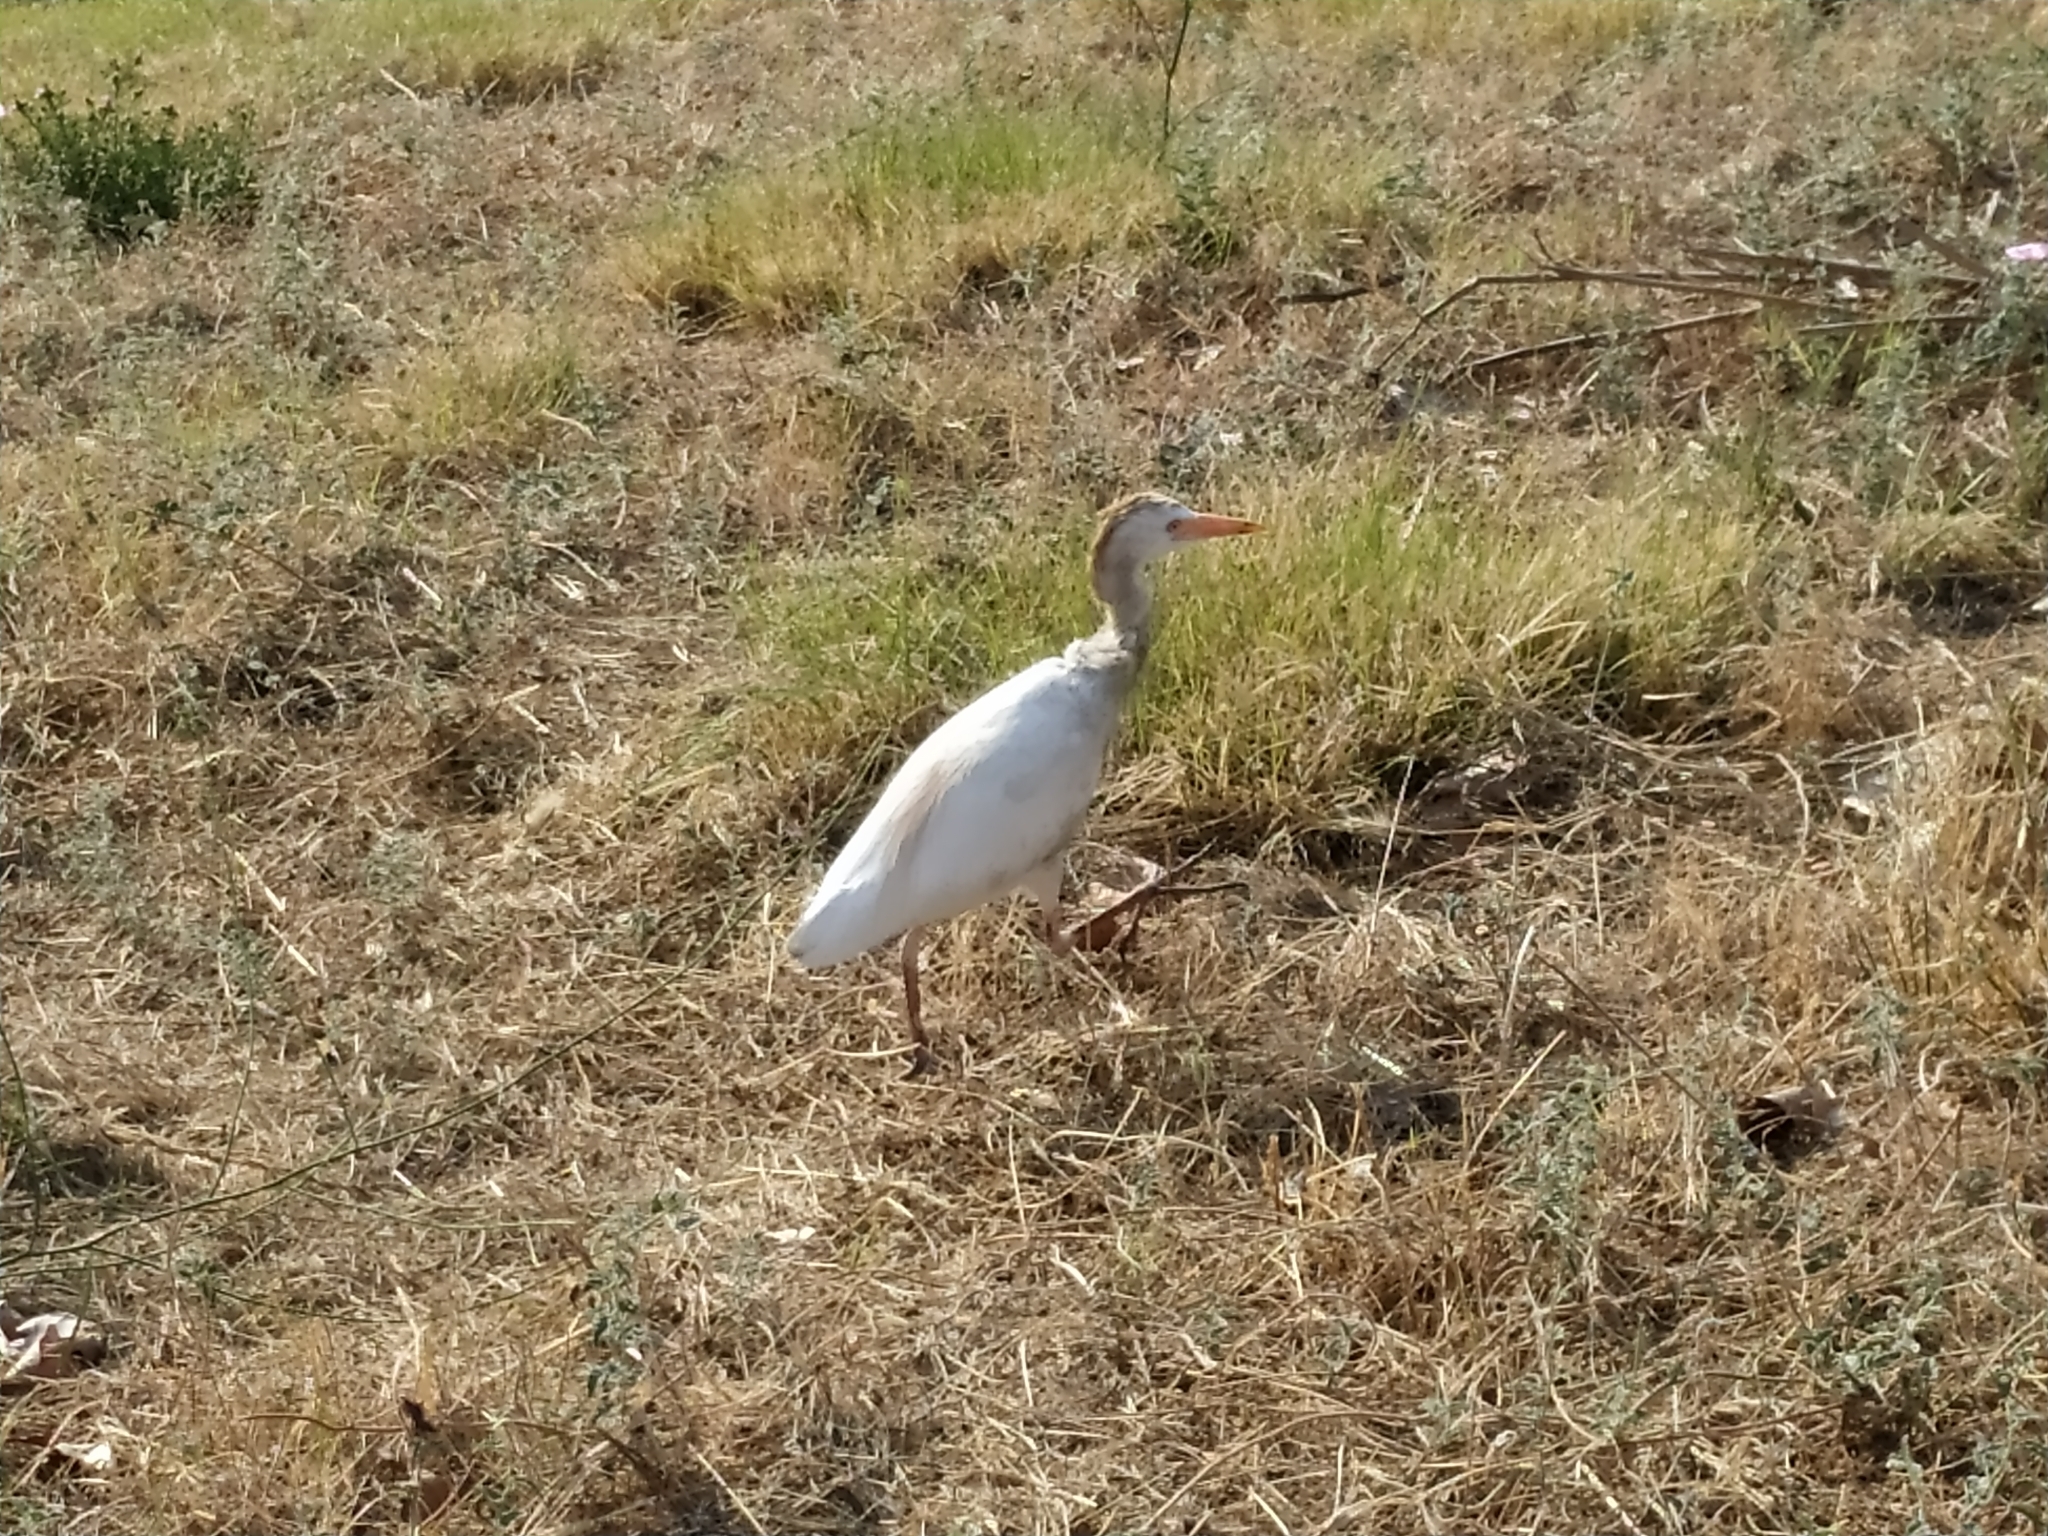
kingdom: Animalia
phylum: Chordata
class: Aves
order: Pelecaniformes
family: Ardeidae
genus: Bubulcus
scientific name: Bubulcus ibis
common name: Cattle egret
